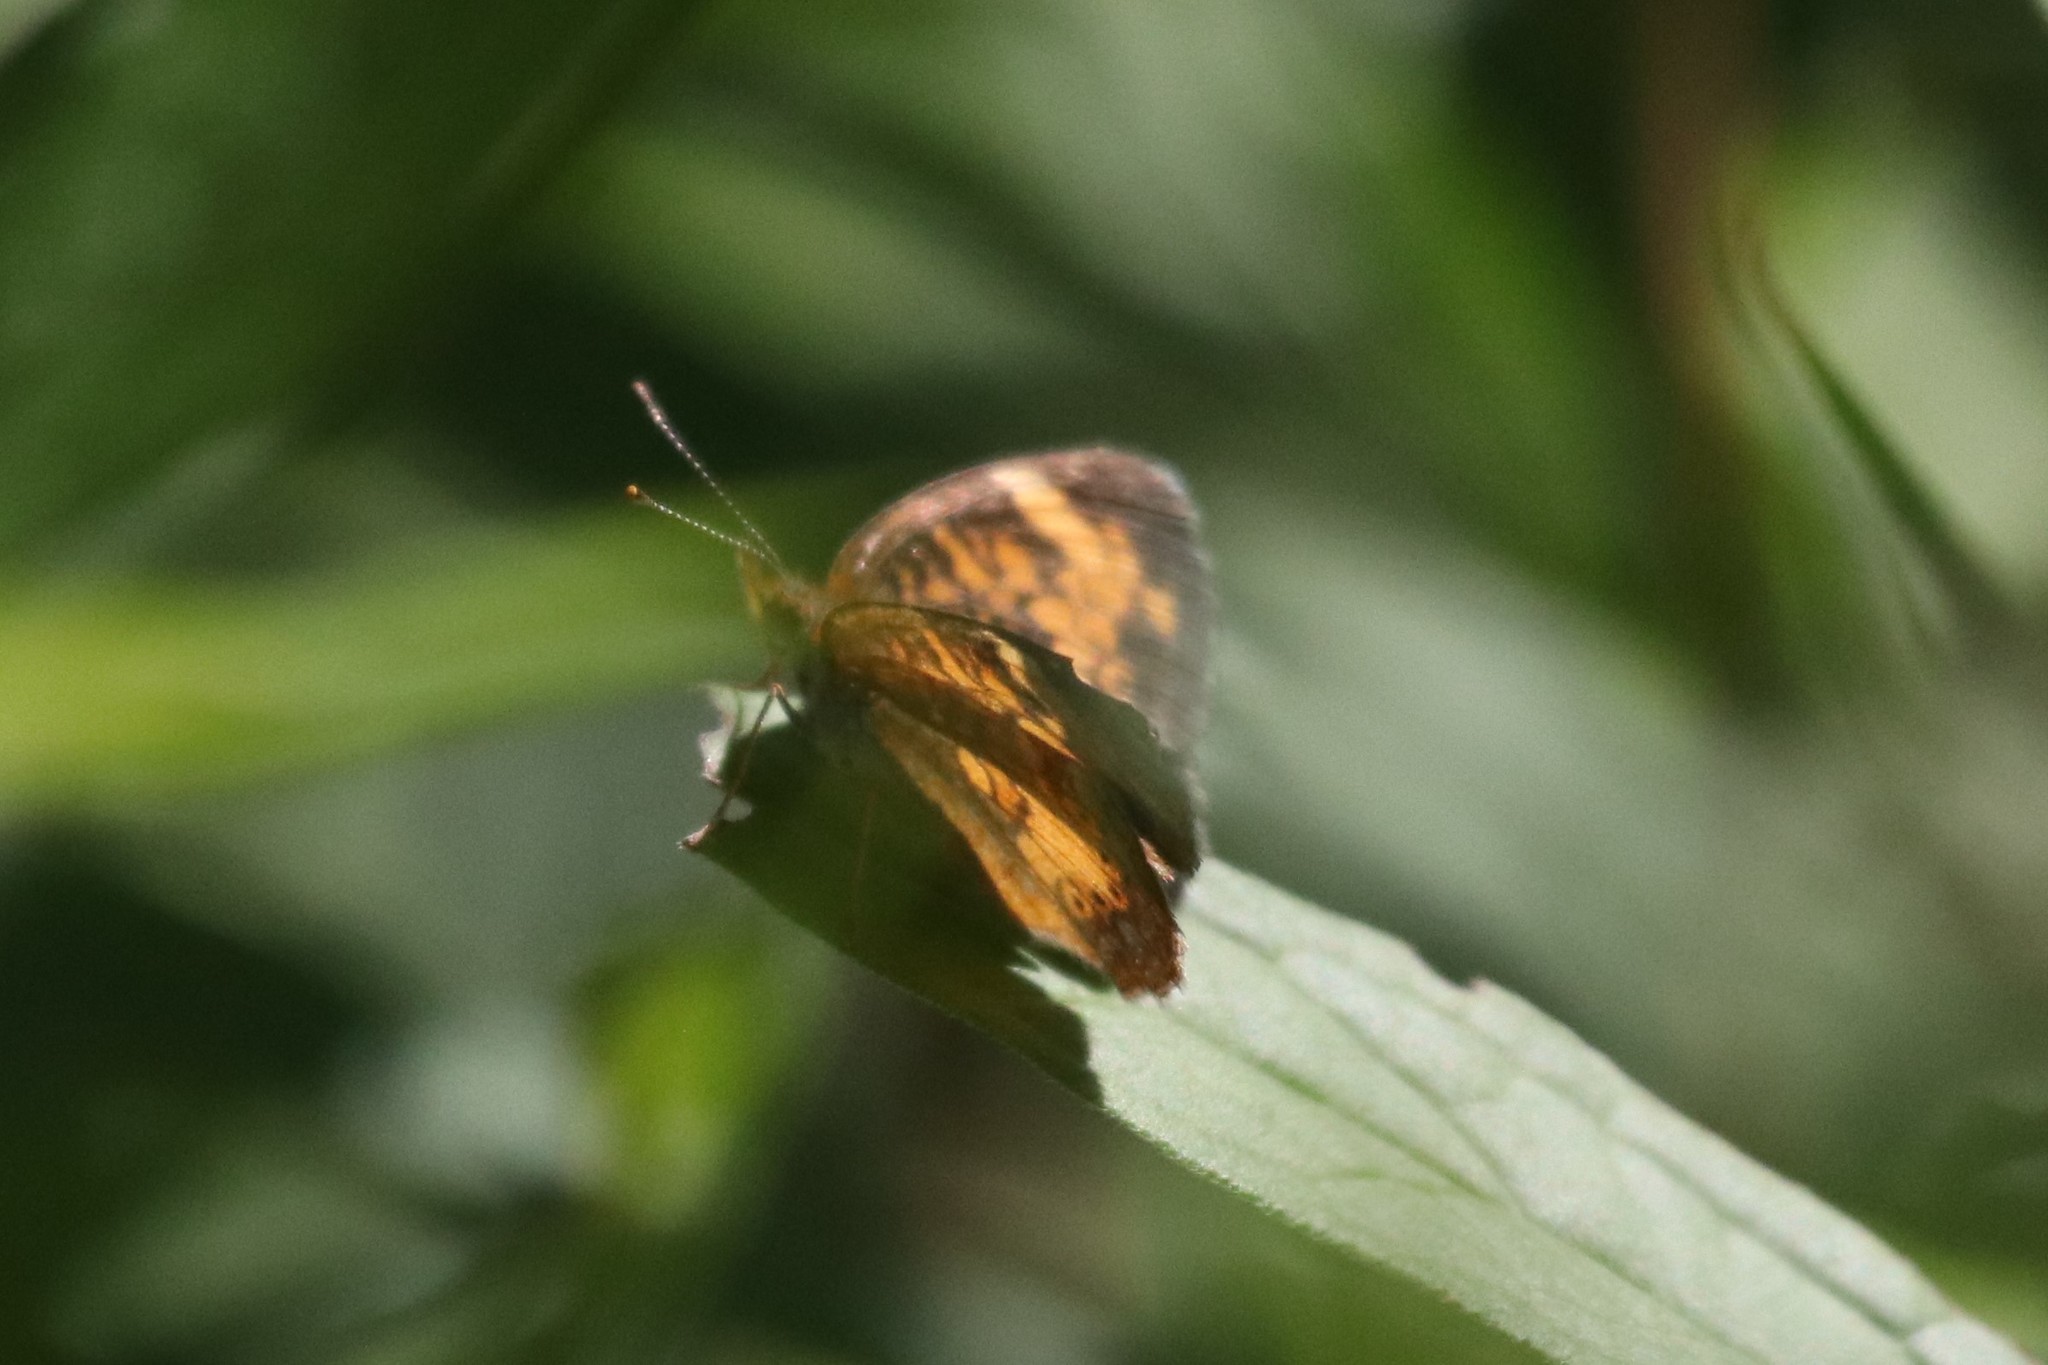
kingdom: Animalia
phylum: Arthropoda
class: Insecta
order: Lepidoptera
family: Nymphalidae
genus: Phyciodes
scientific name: Phyciodes tharos
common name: Pearl crescent
